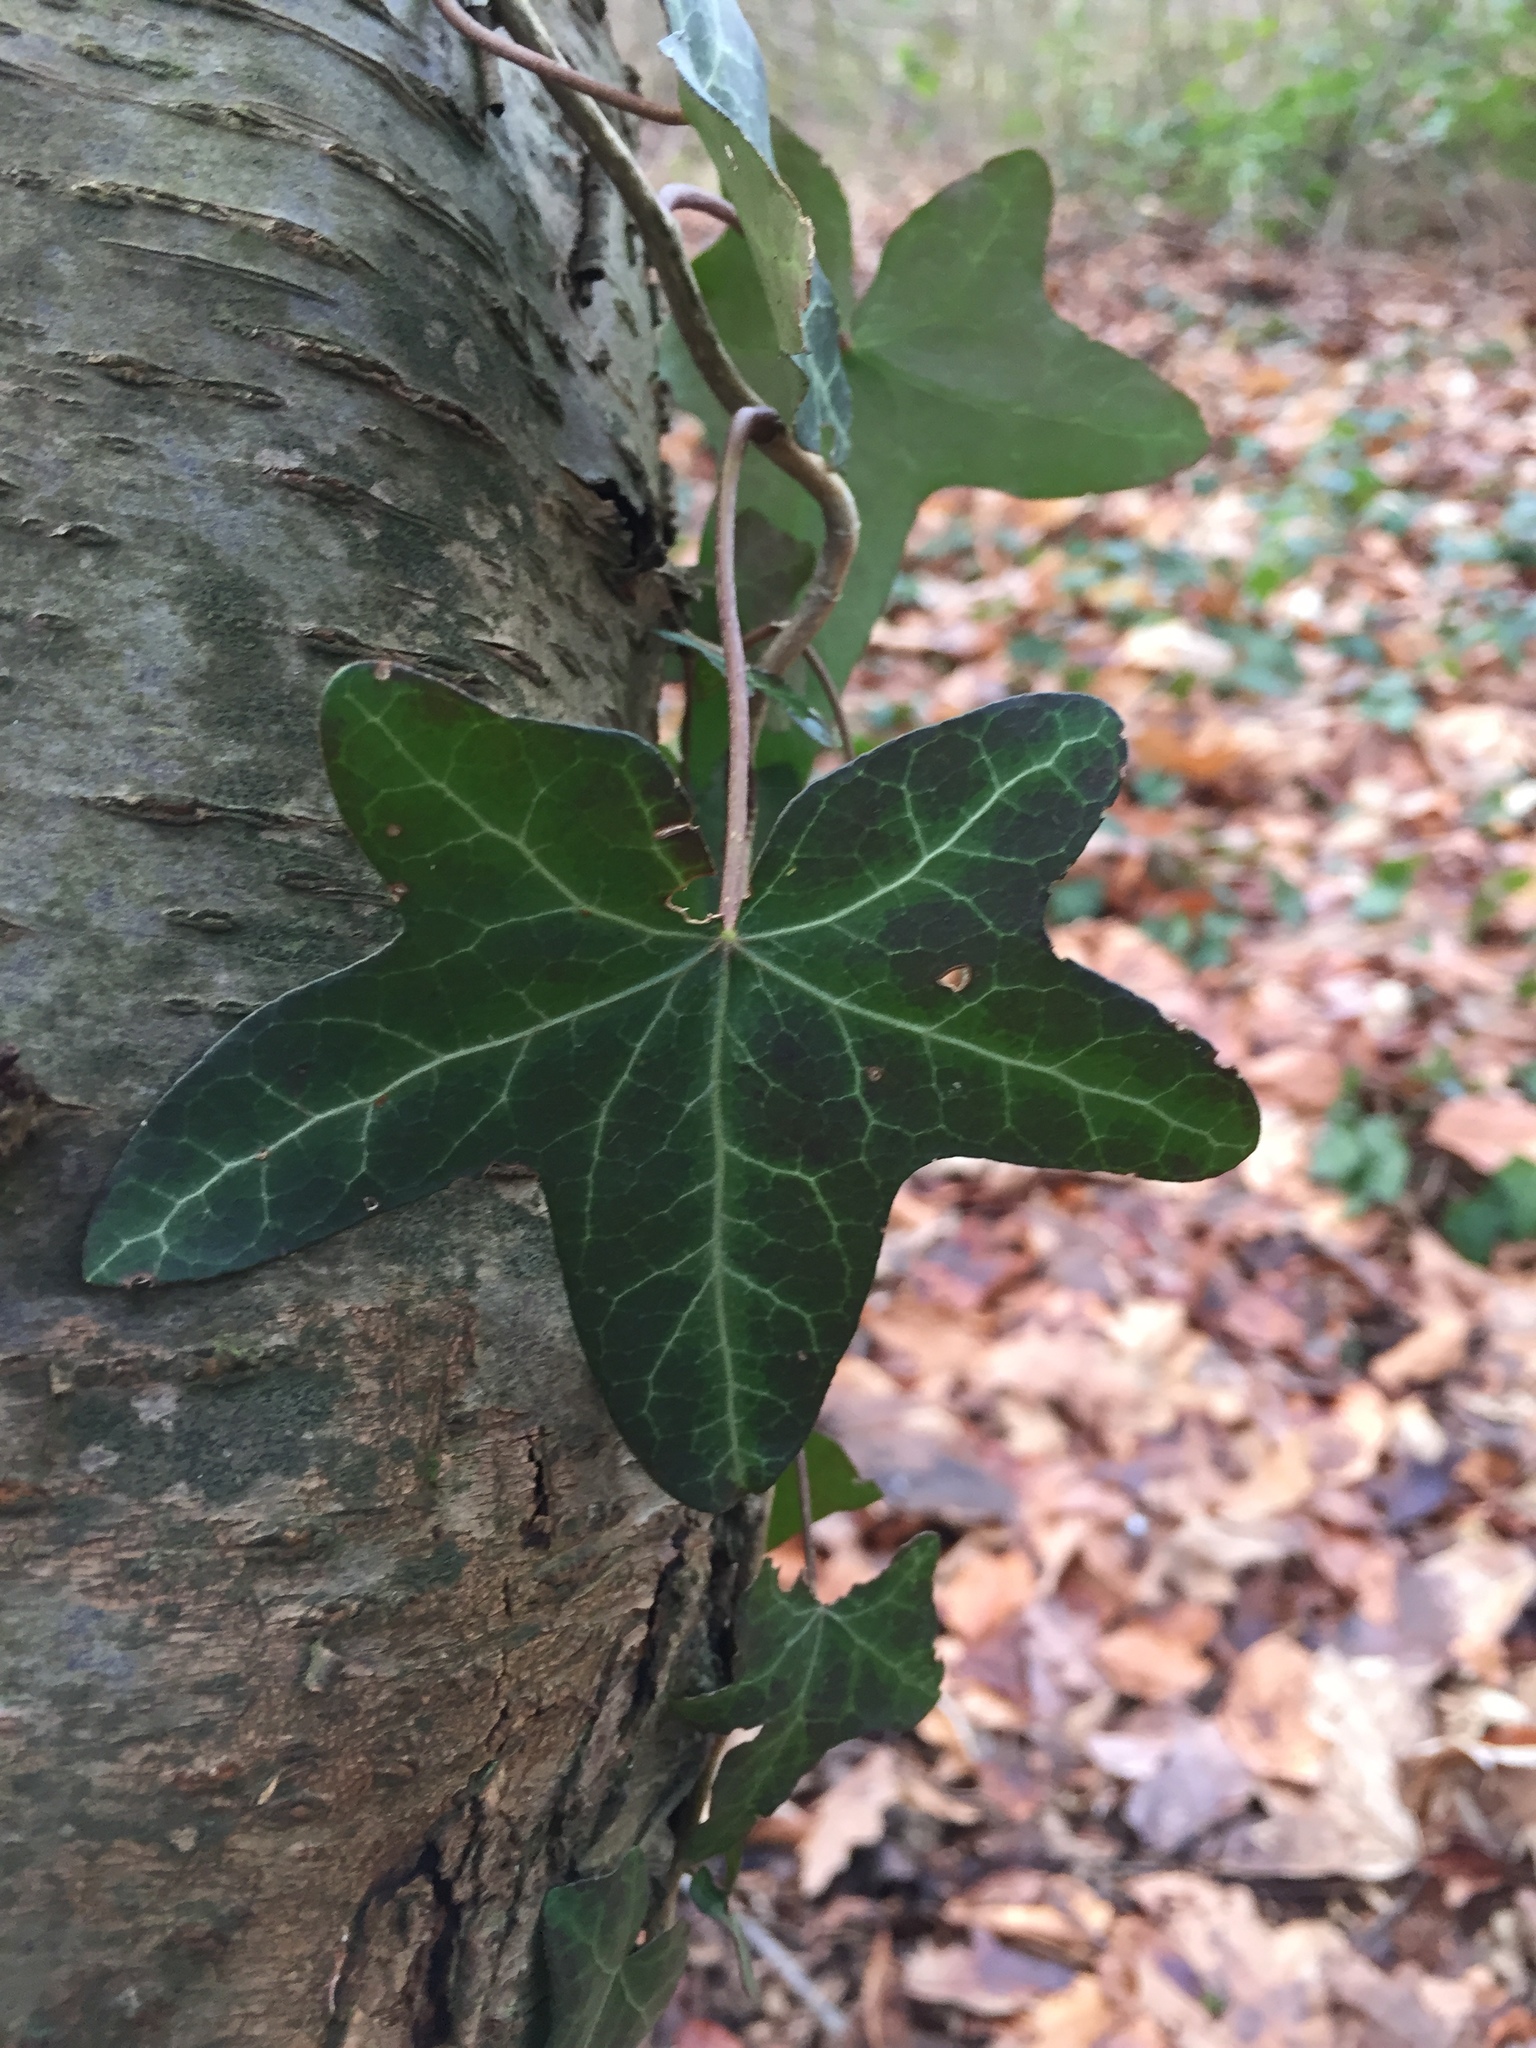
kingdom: Plantae
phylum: Tracheophyta
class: Magnoliopsida
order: Apiales
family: Araliaceae
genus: Hedera
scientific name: Hedera helix
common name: Ivy
